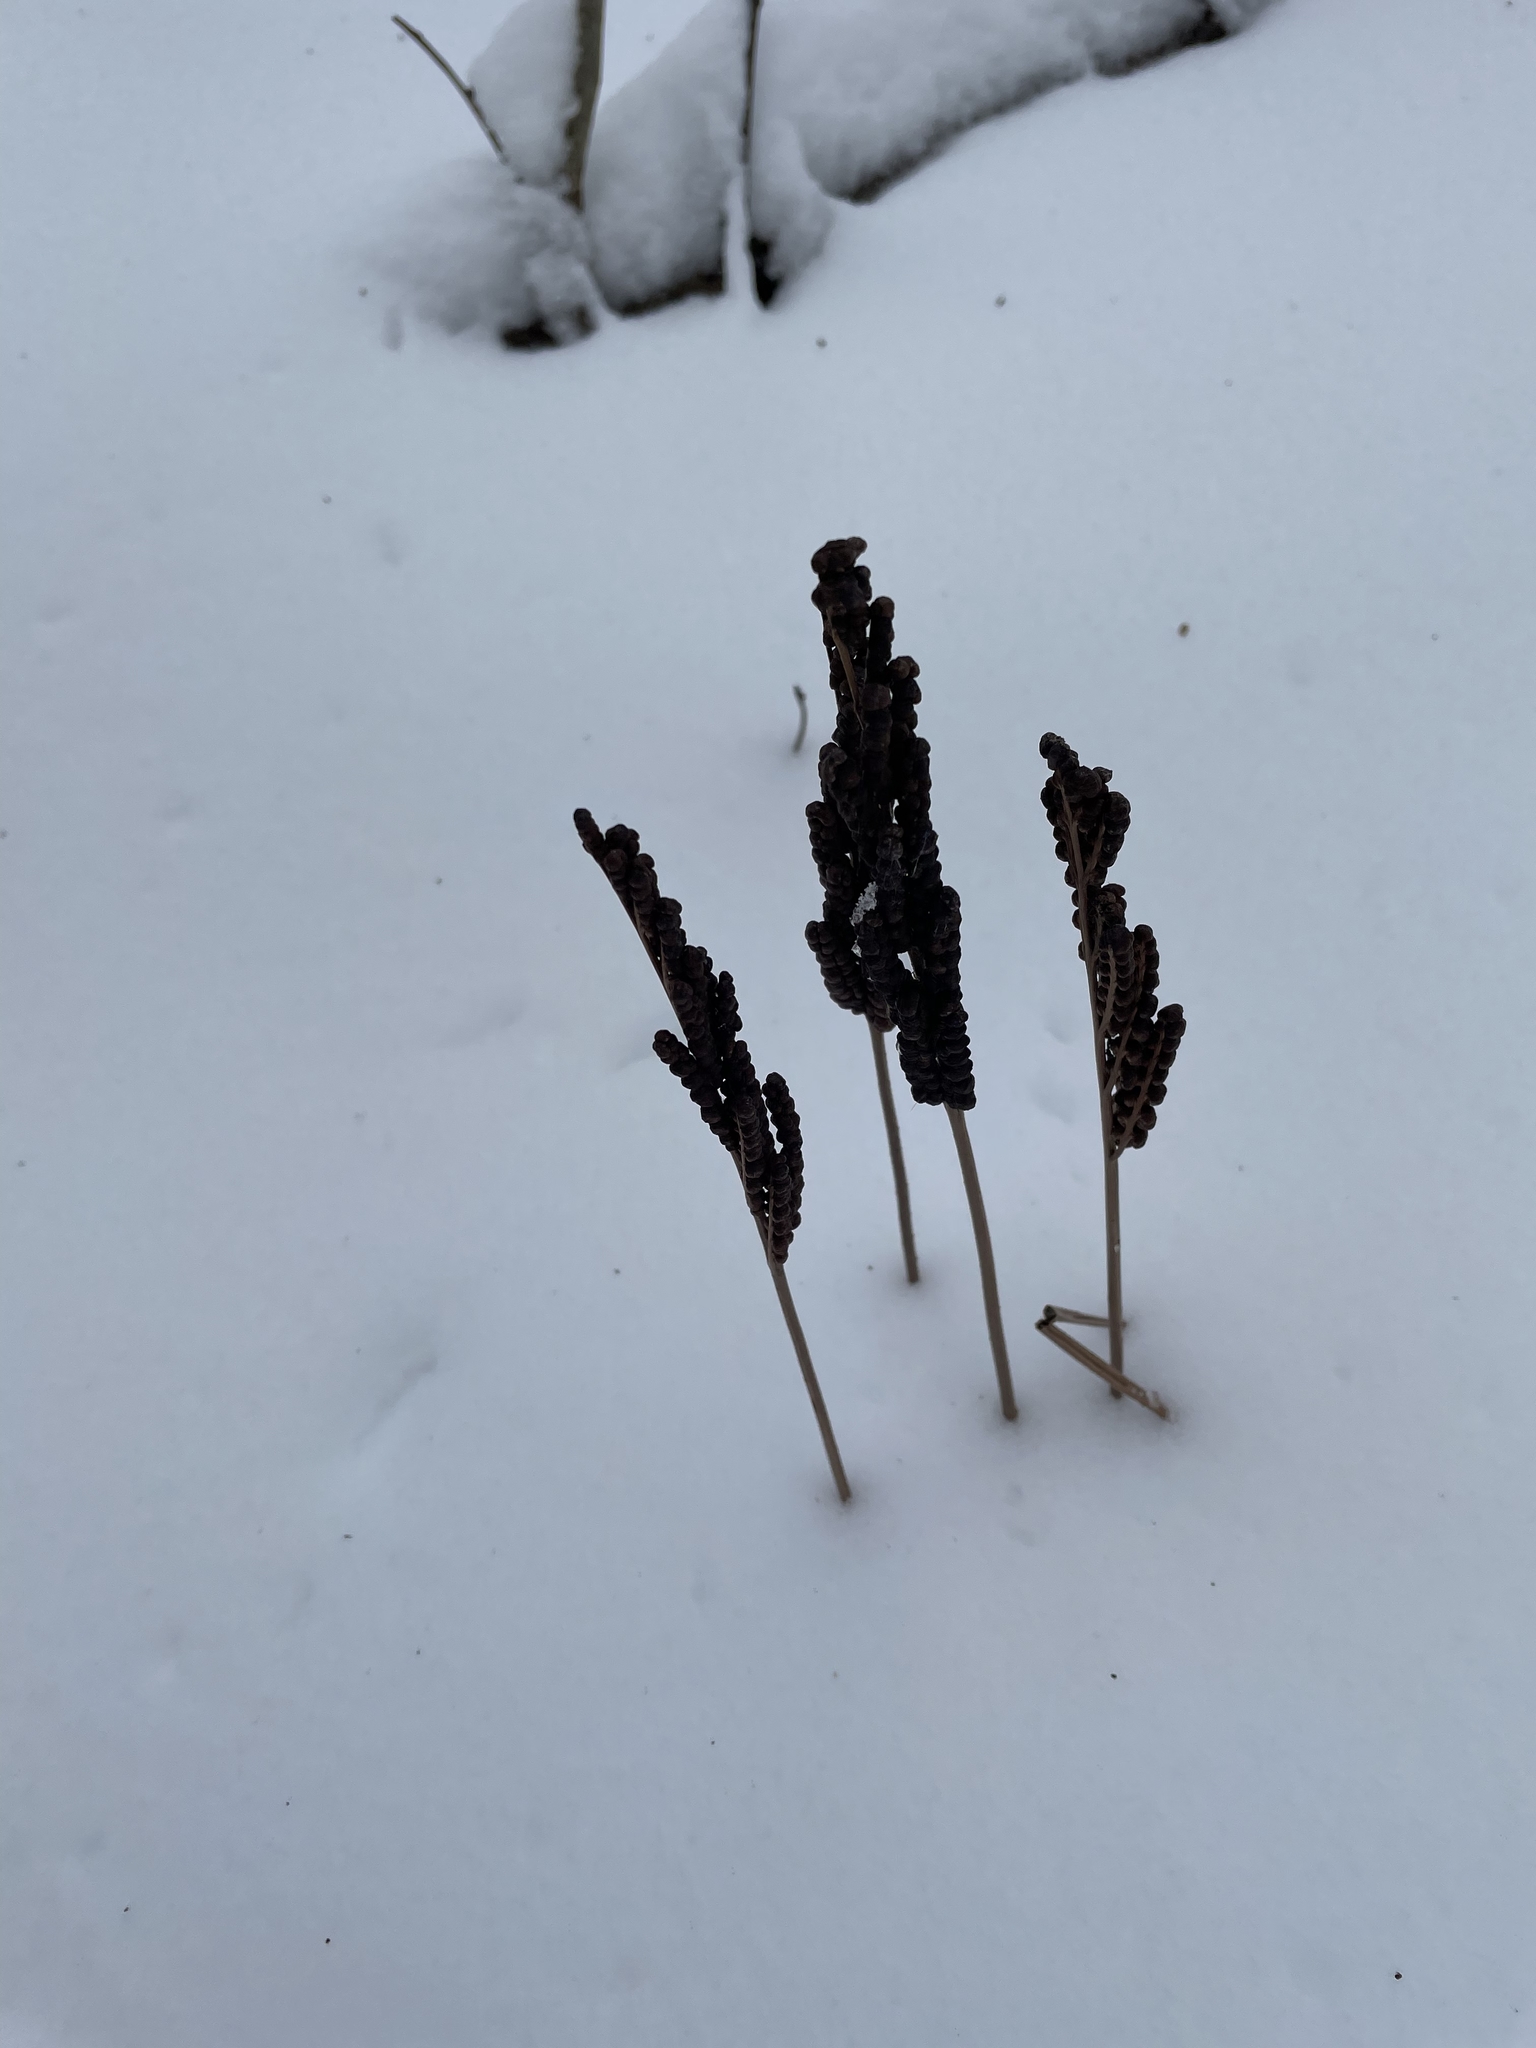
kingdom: Plantae
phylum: Tracheophyta
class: Polypodiopsida
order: Polypodiales
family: Onocleaceae
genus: Onoclea
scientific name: Onoclea sensibilis
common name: Sensitive fern
